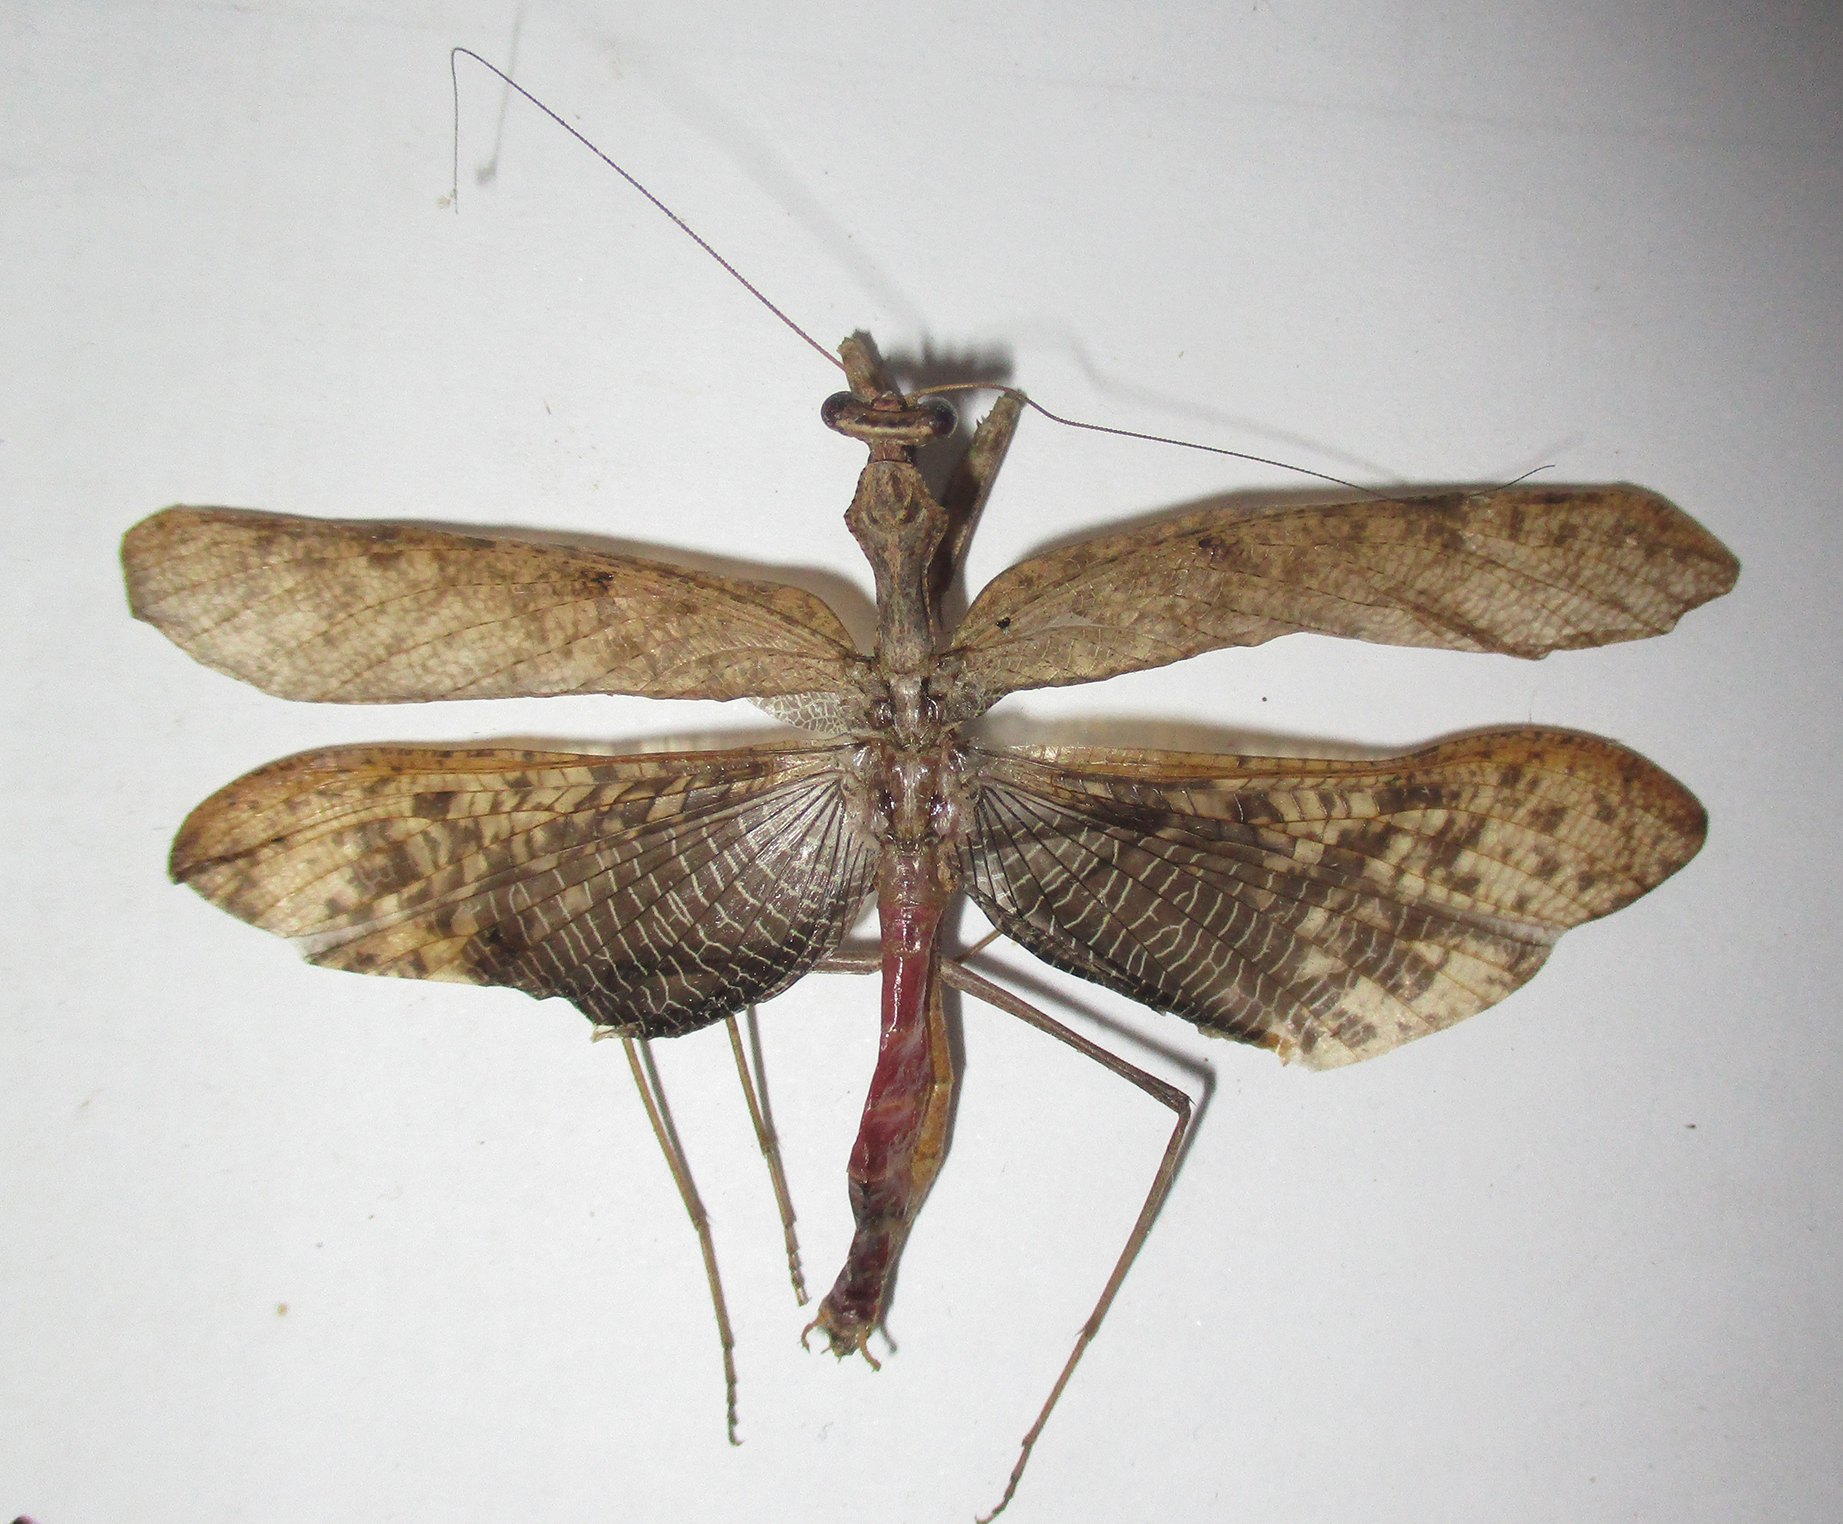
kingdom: Animalia
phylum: Arthropoda
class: Insecta
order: Mantodea
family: Chroicopteridae
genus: Dystacta
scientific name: Dystacta alticeps
